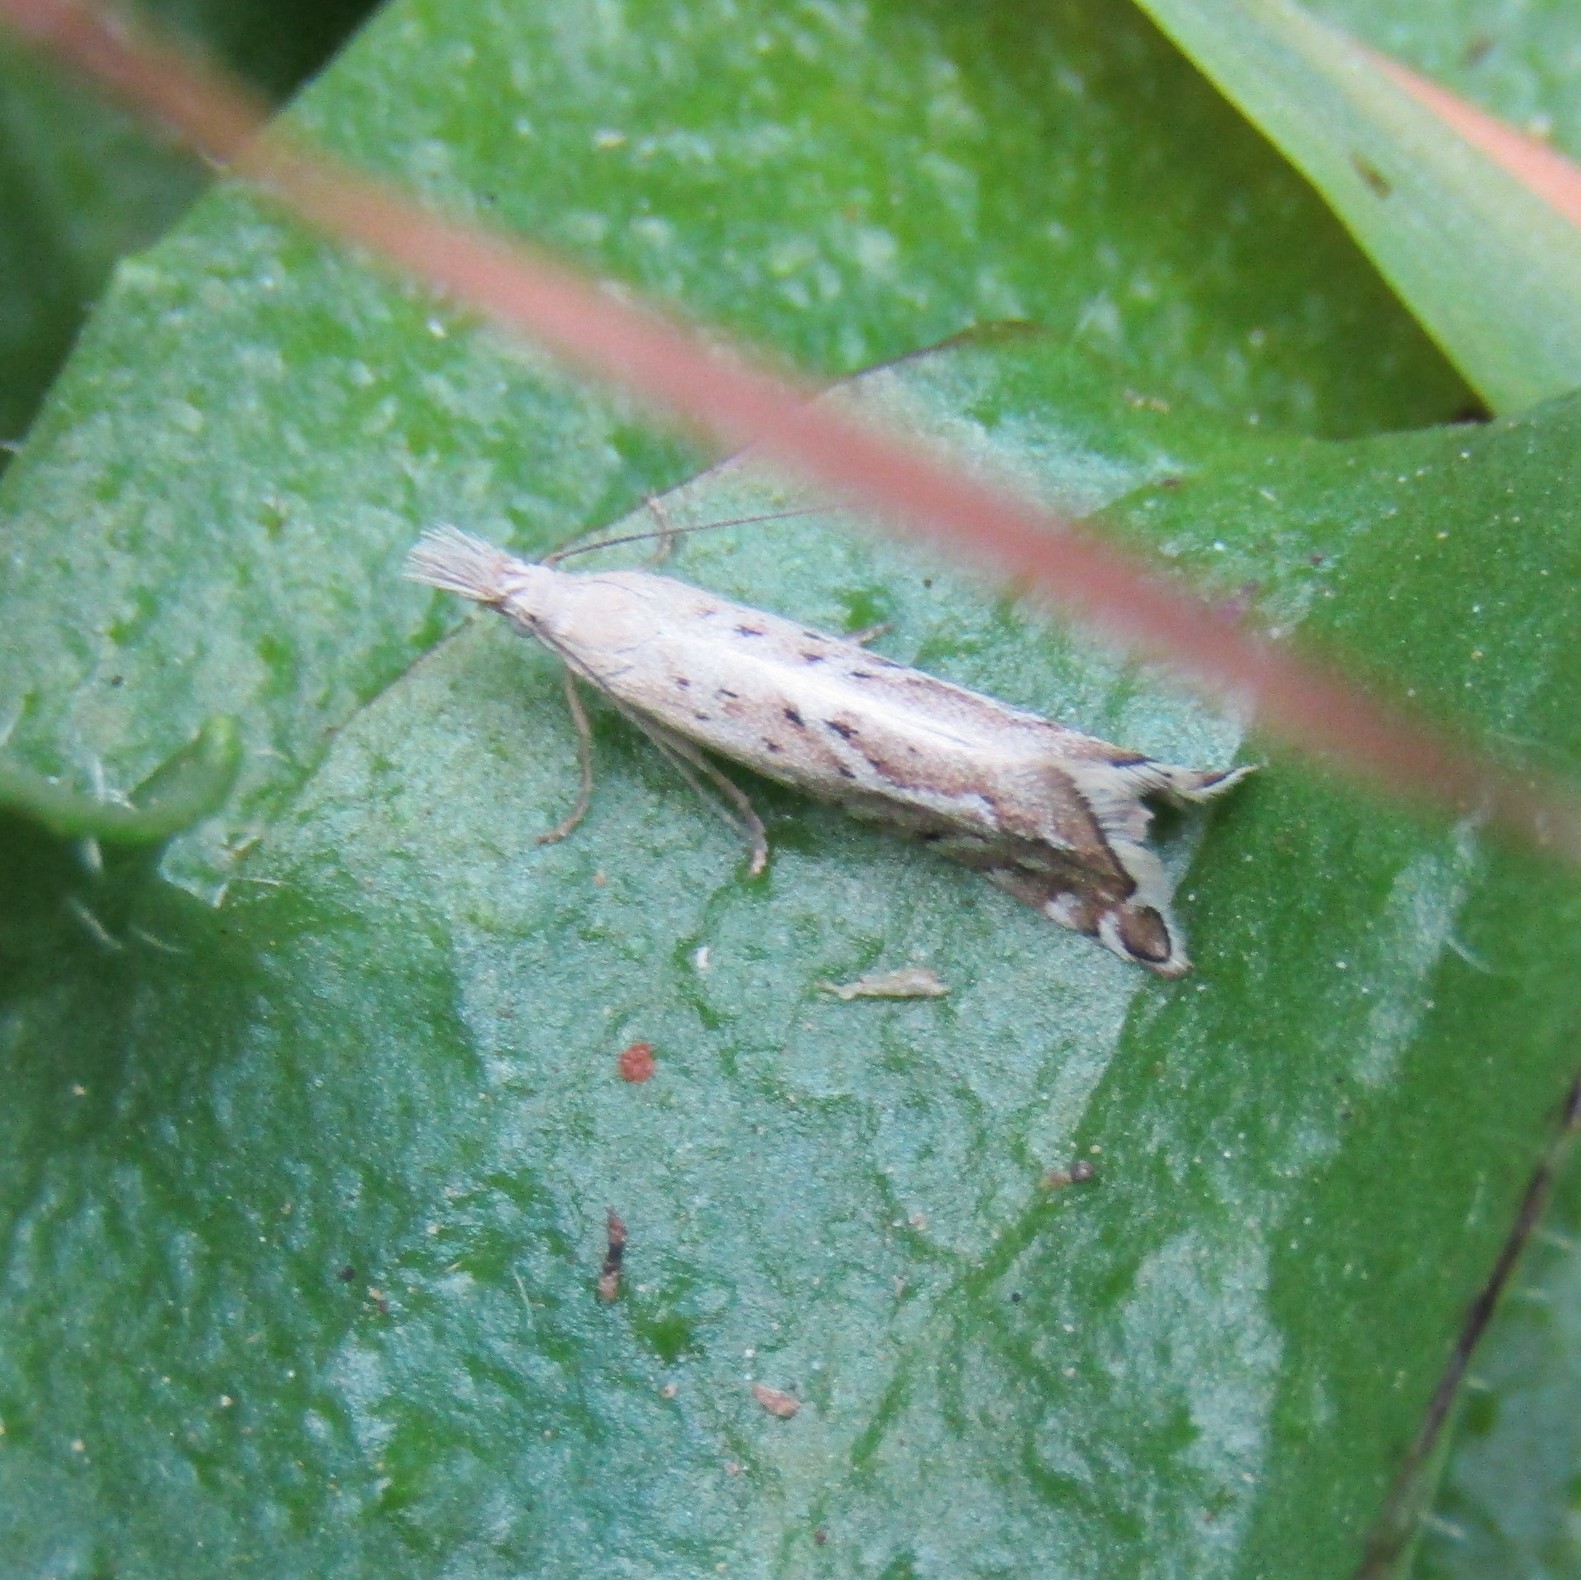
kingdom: Animalia
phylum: Arthropoda
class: Insecta
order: Lepidoptera
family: Glyphipterigidae
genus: Glyphipterix
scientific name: Glyphipterix achlyoessa
